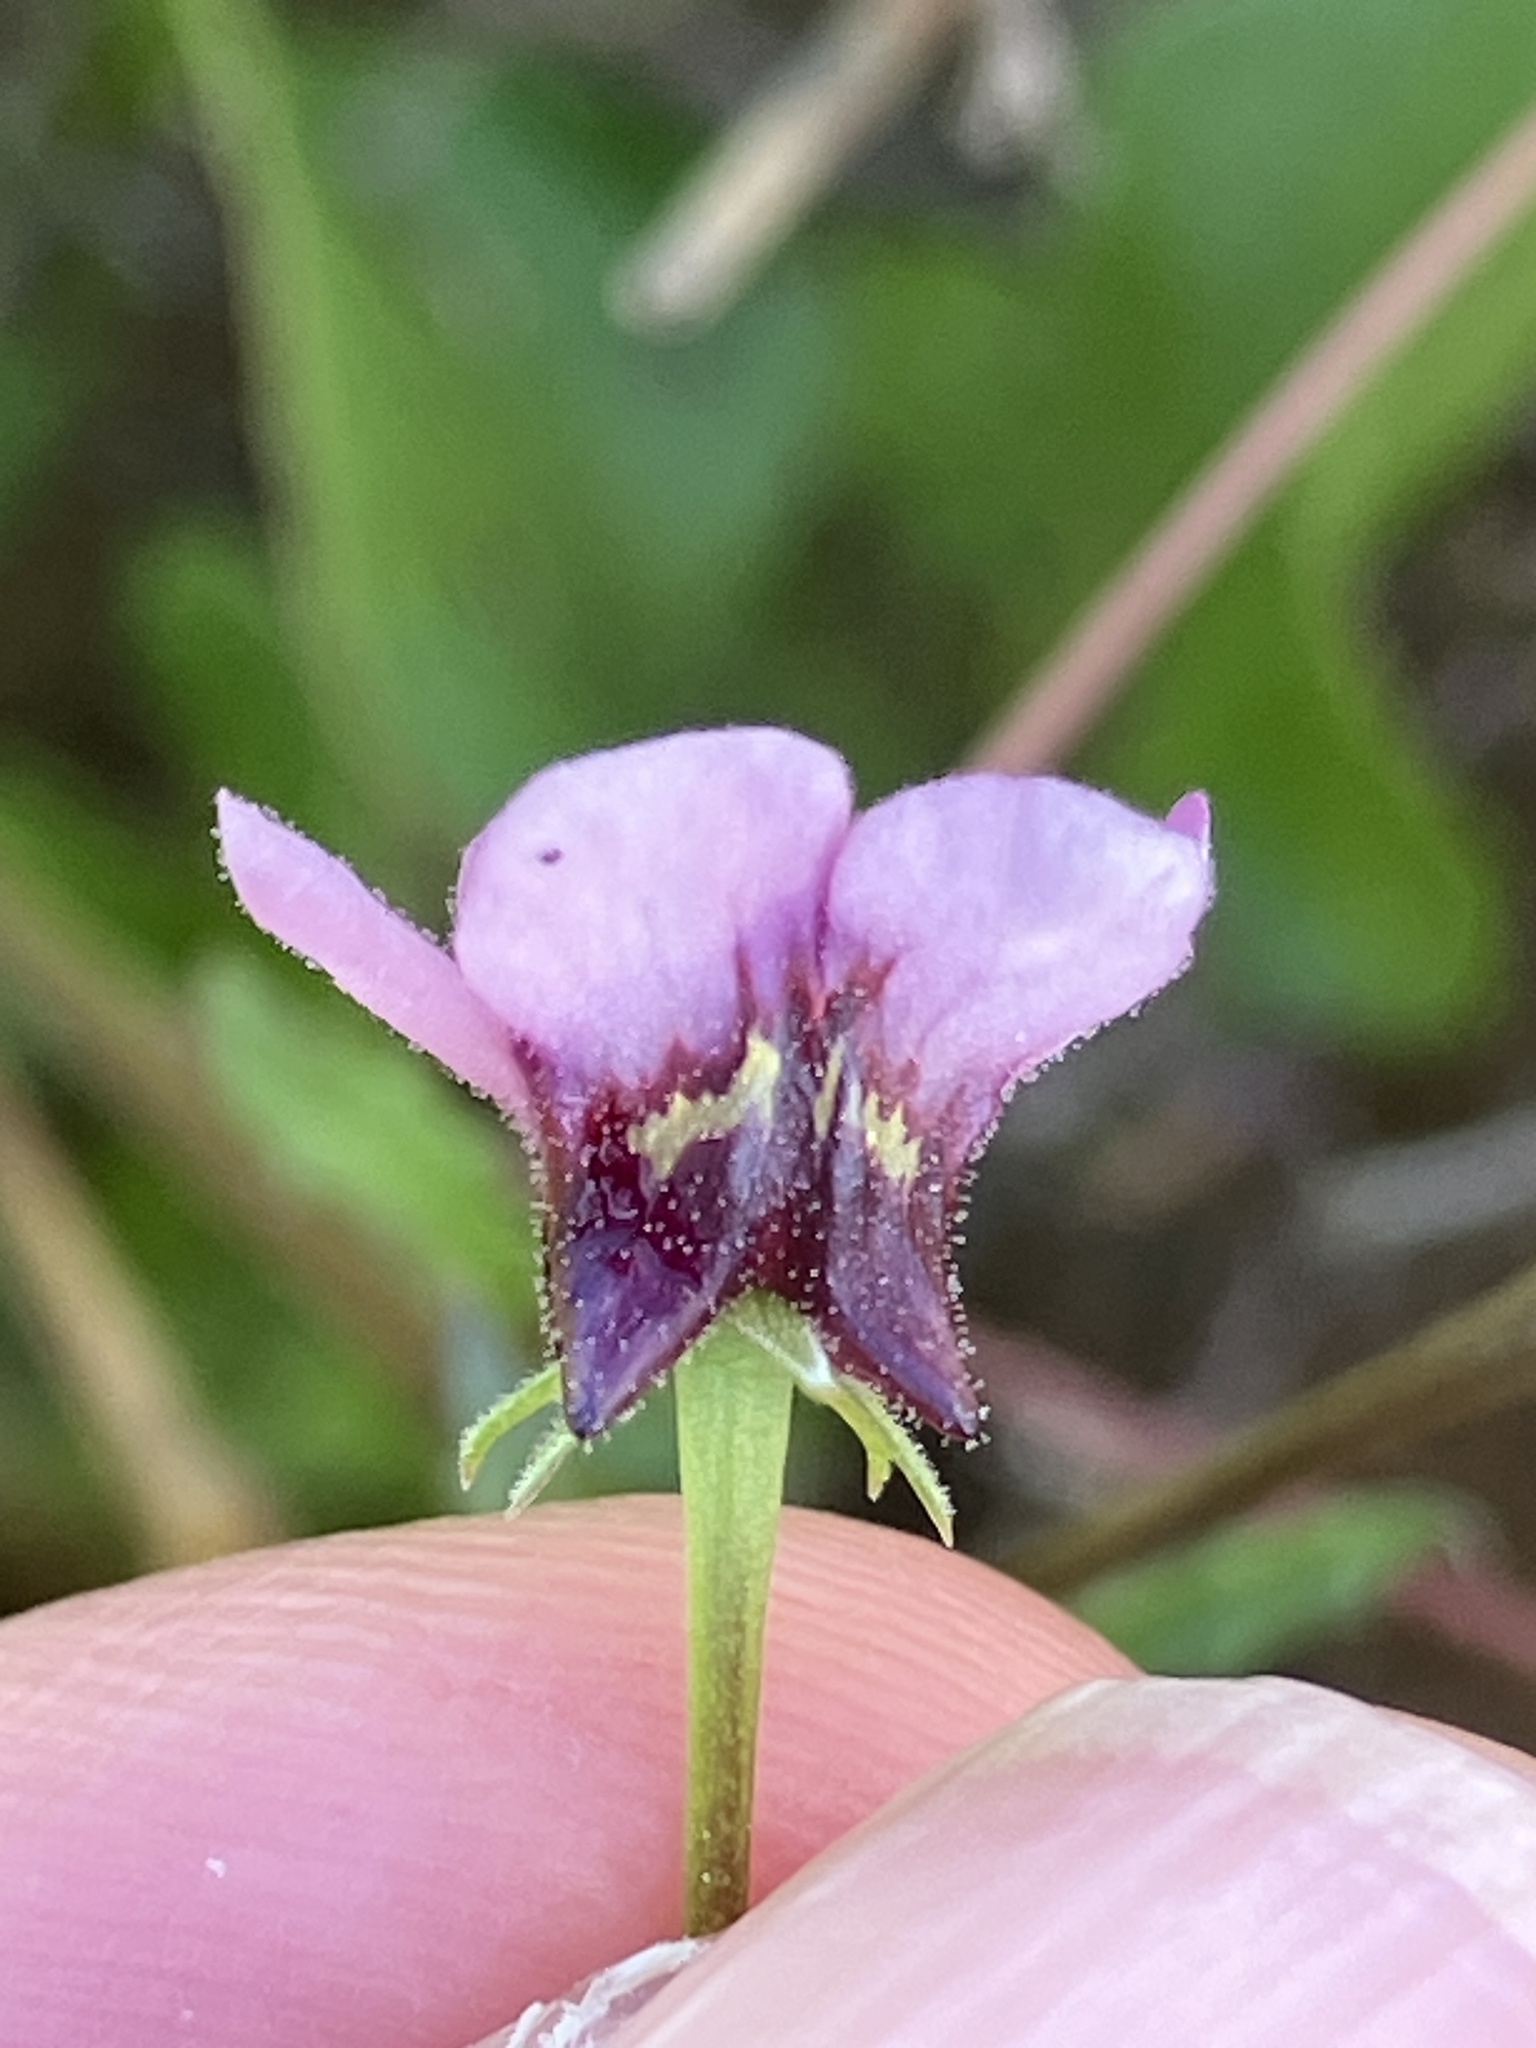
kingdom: Plantae
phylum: Tracheophyta
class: Magnoliopsida
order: Lamiales
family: Scrophulariaceae
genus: Diascia
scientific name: Diascia capensis
